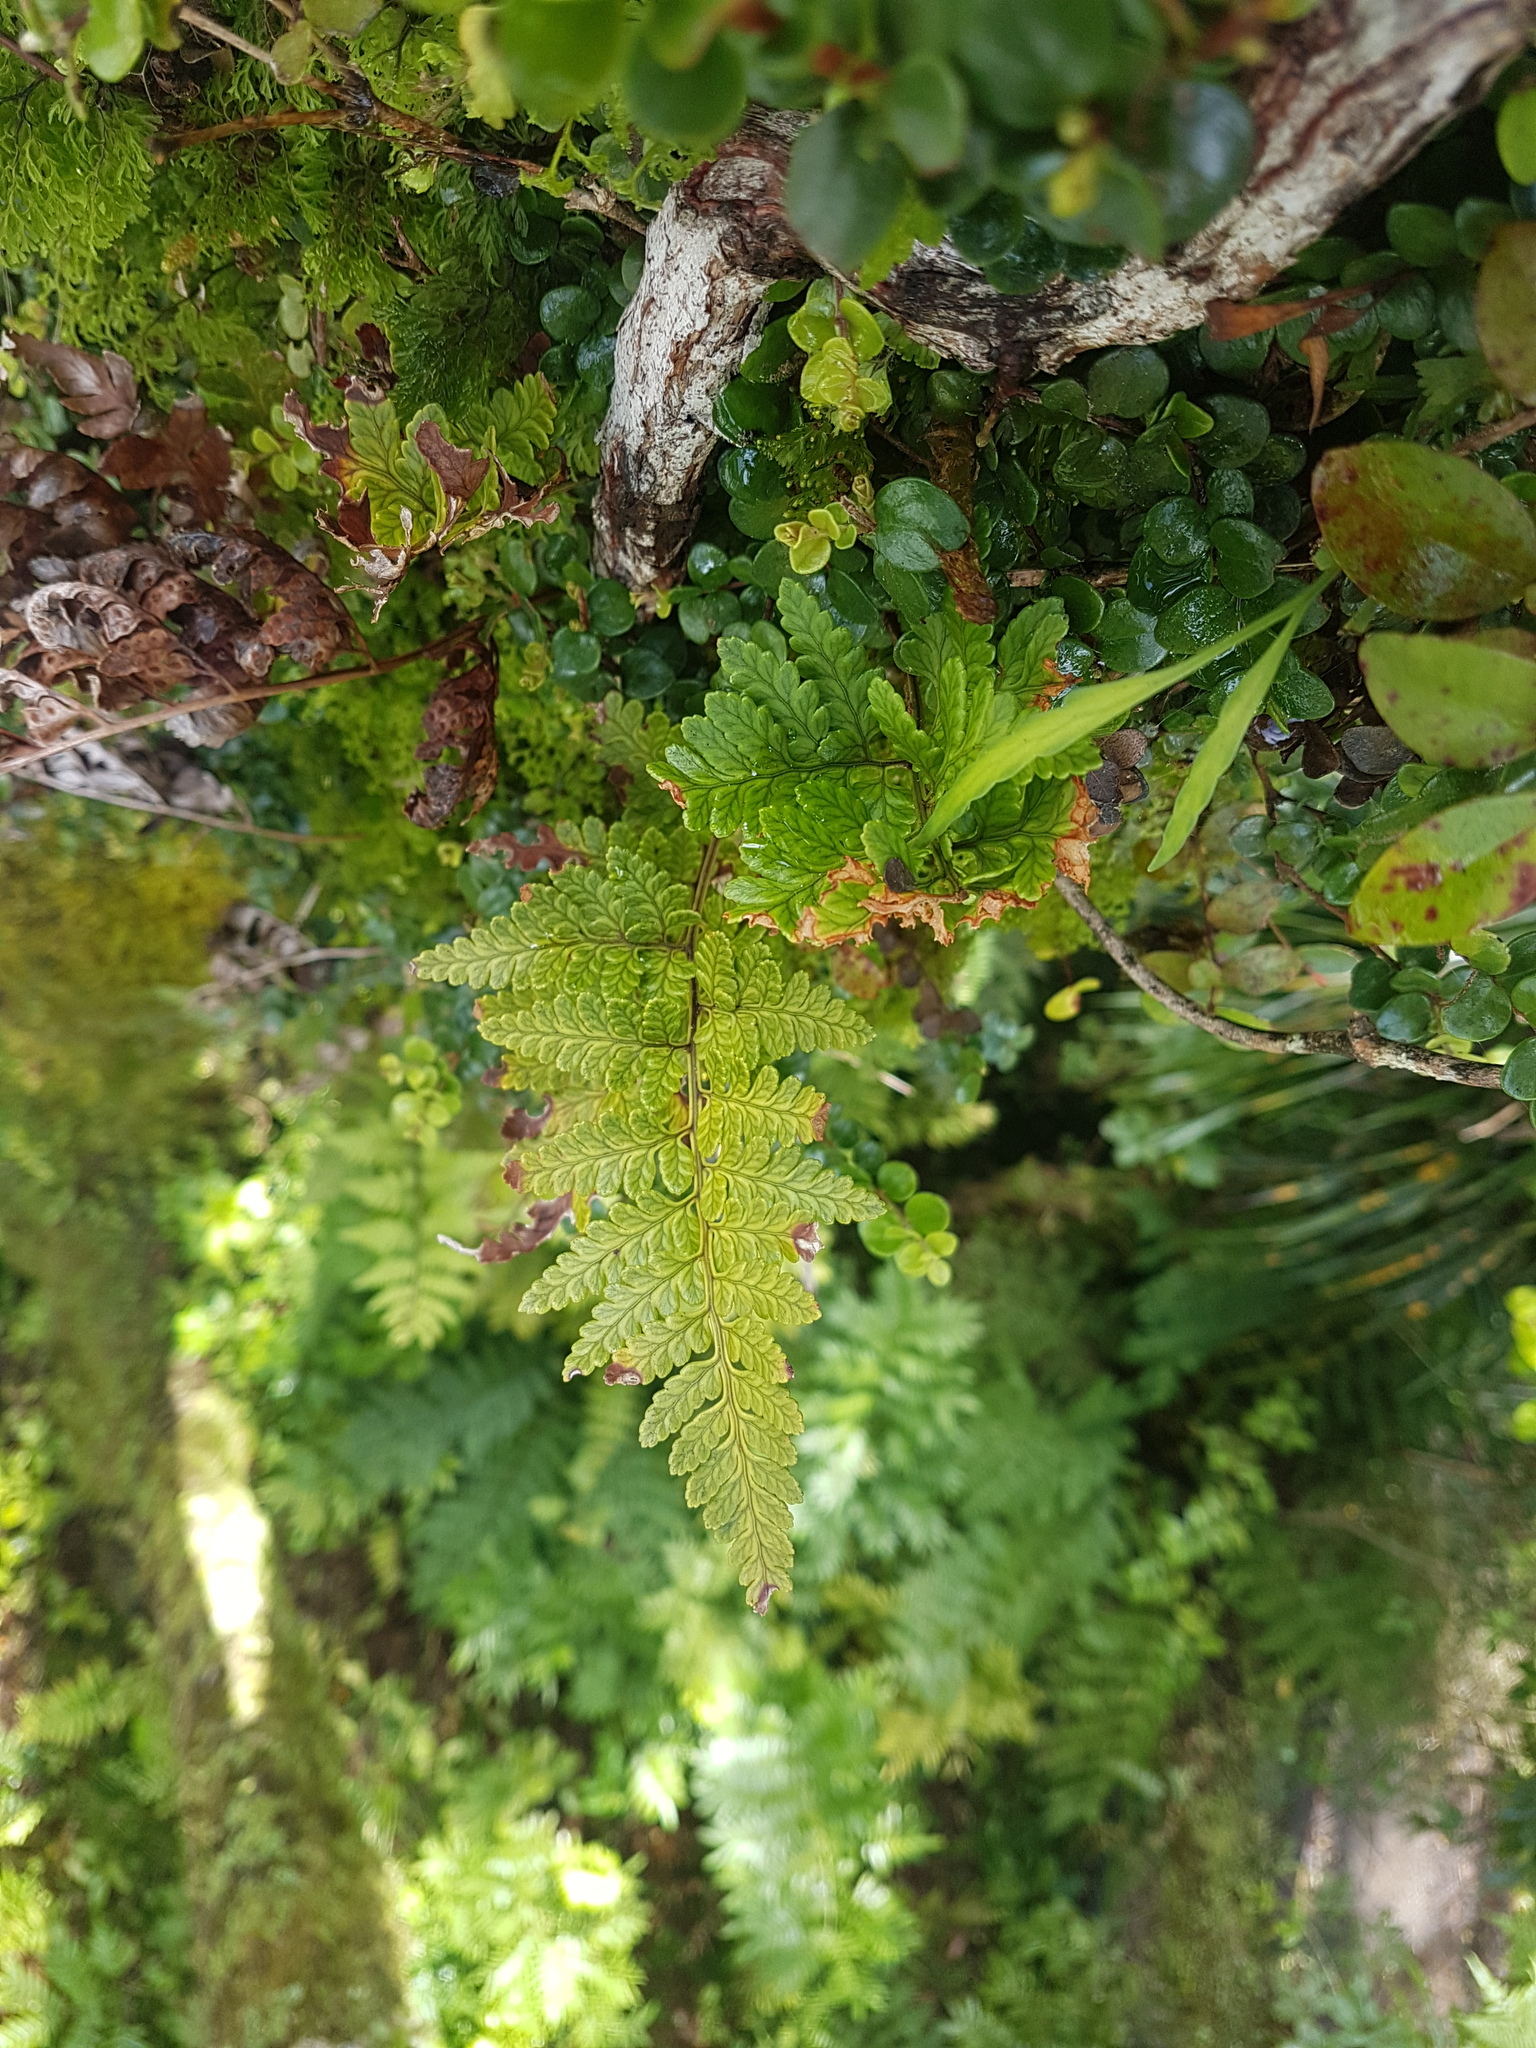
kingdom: Plantae
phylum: Tracheophyta
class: Polypodiopsida
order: Polypodiales
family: Dryopteridaceae
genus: Rumohra
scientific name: Rumohra adiantiformis
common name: Leather fern
